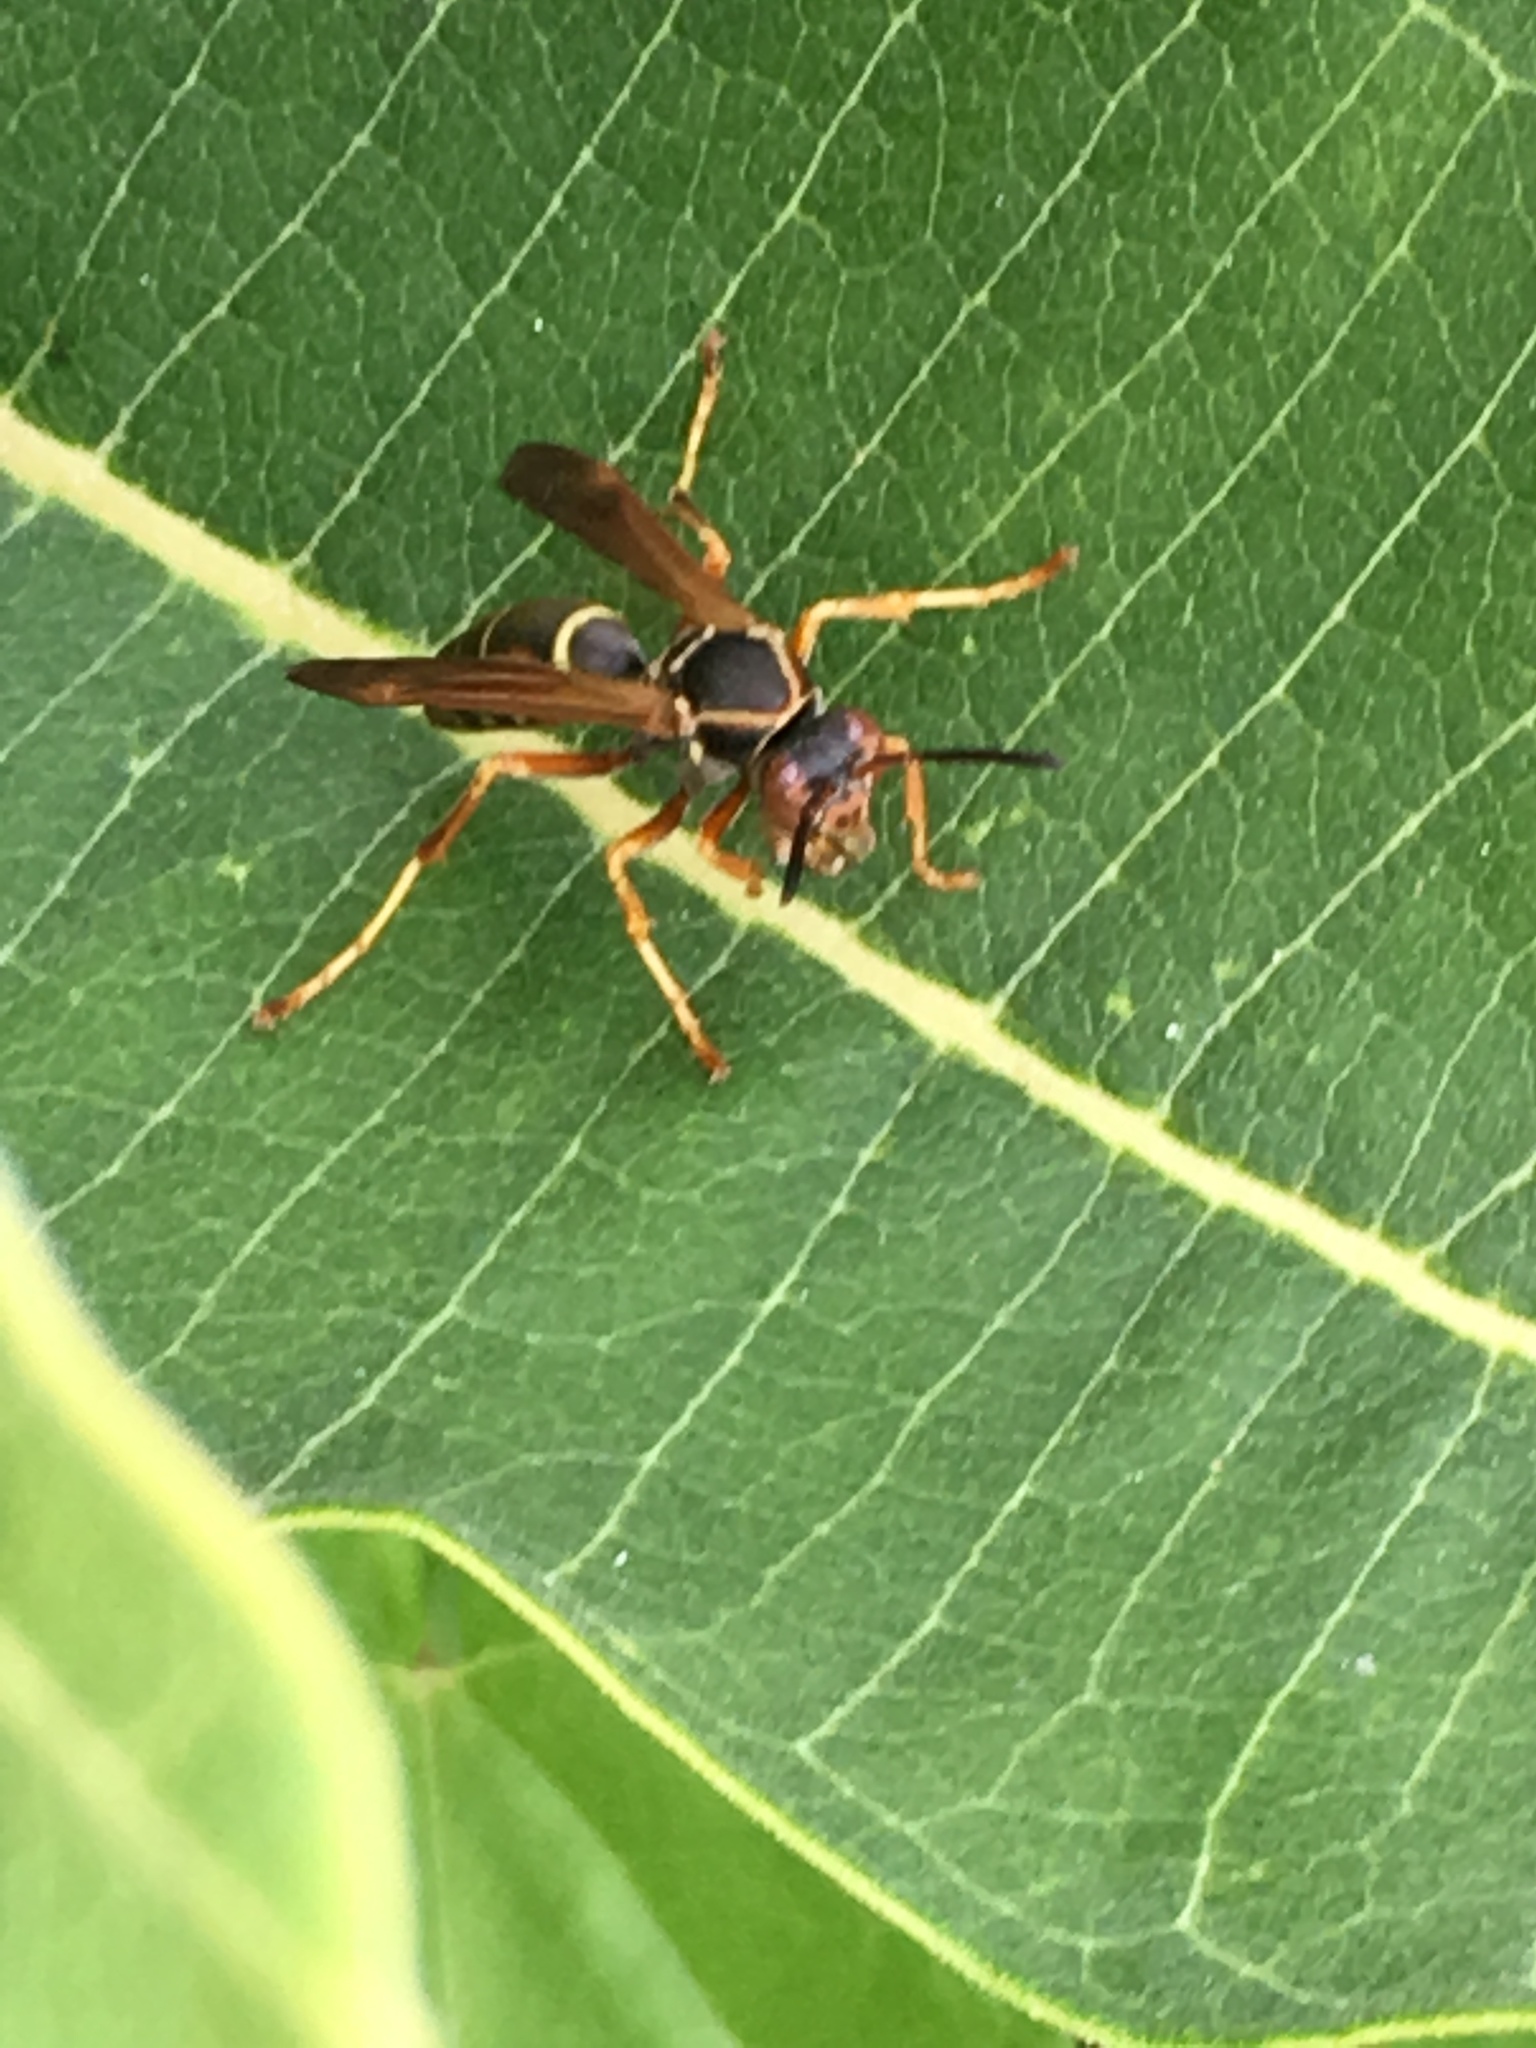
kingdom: Animalia
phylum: Arthropoda
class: Insecta
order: Hymenoptera
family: Eumenidae
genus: Polistes
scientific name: Polistes fuscatus
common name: Dark paper wasp
